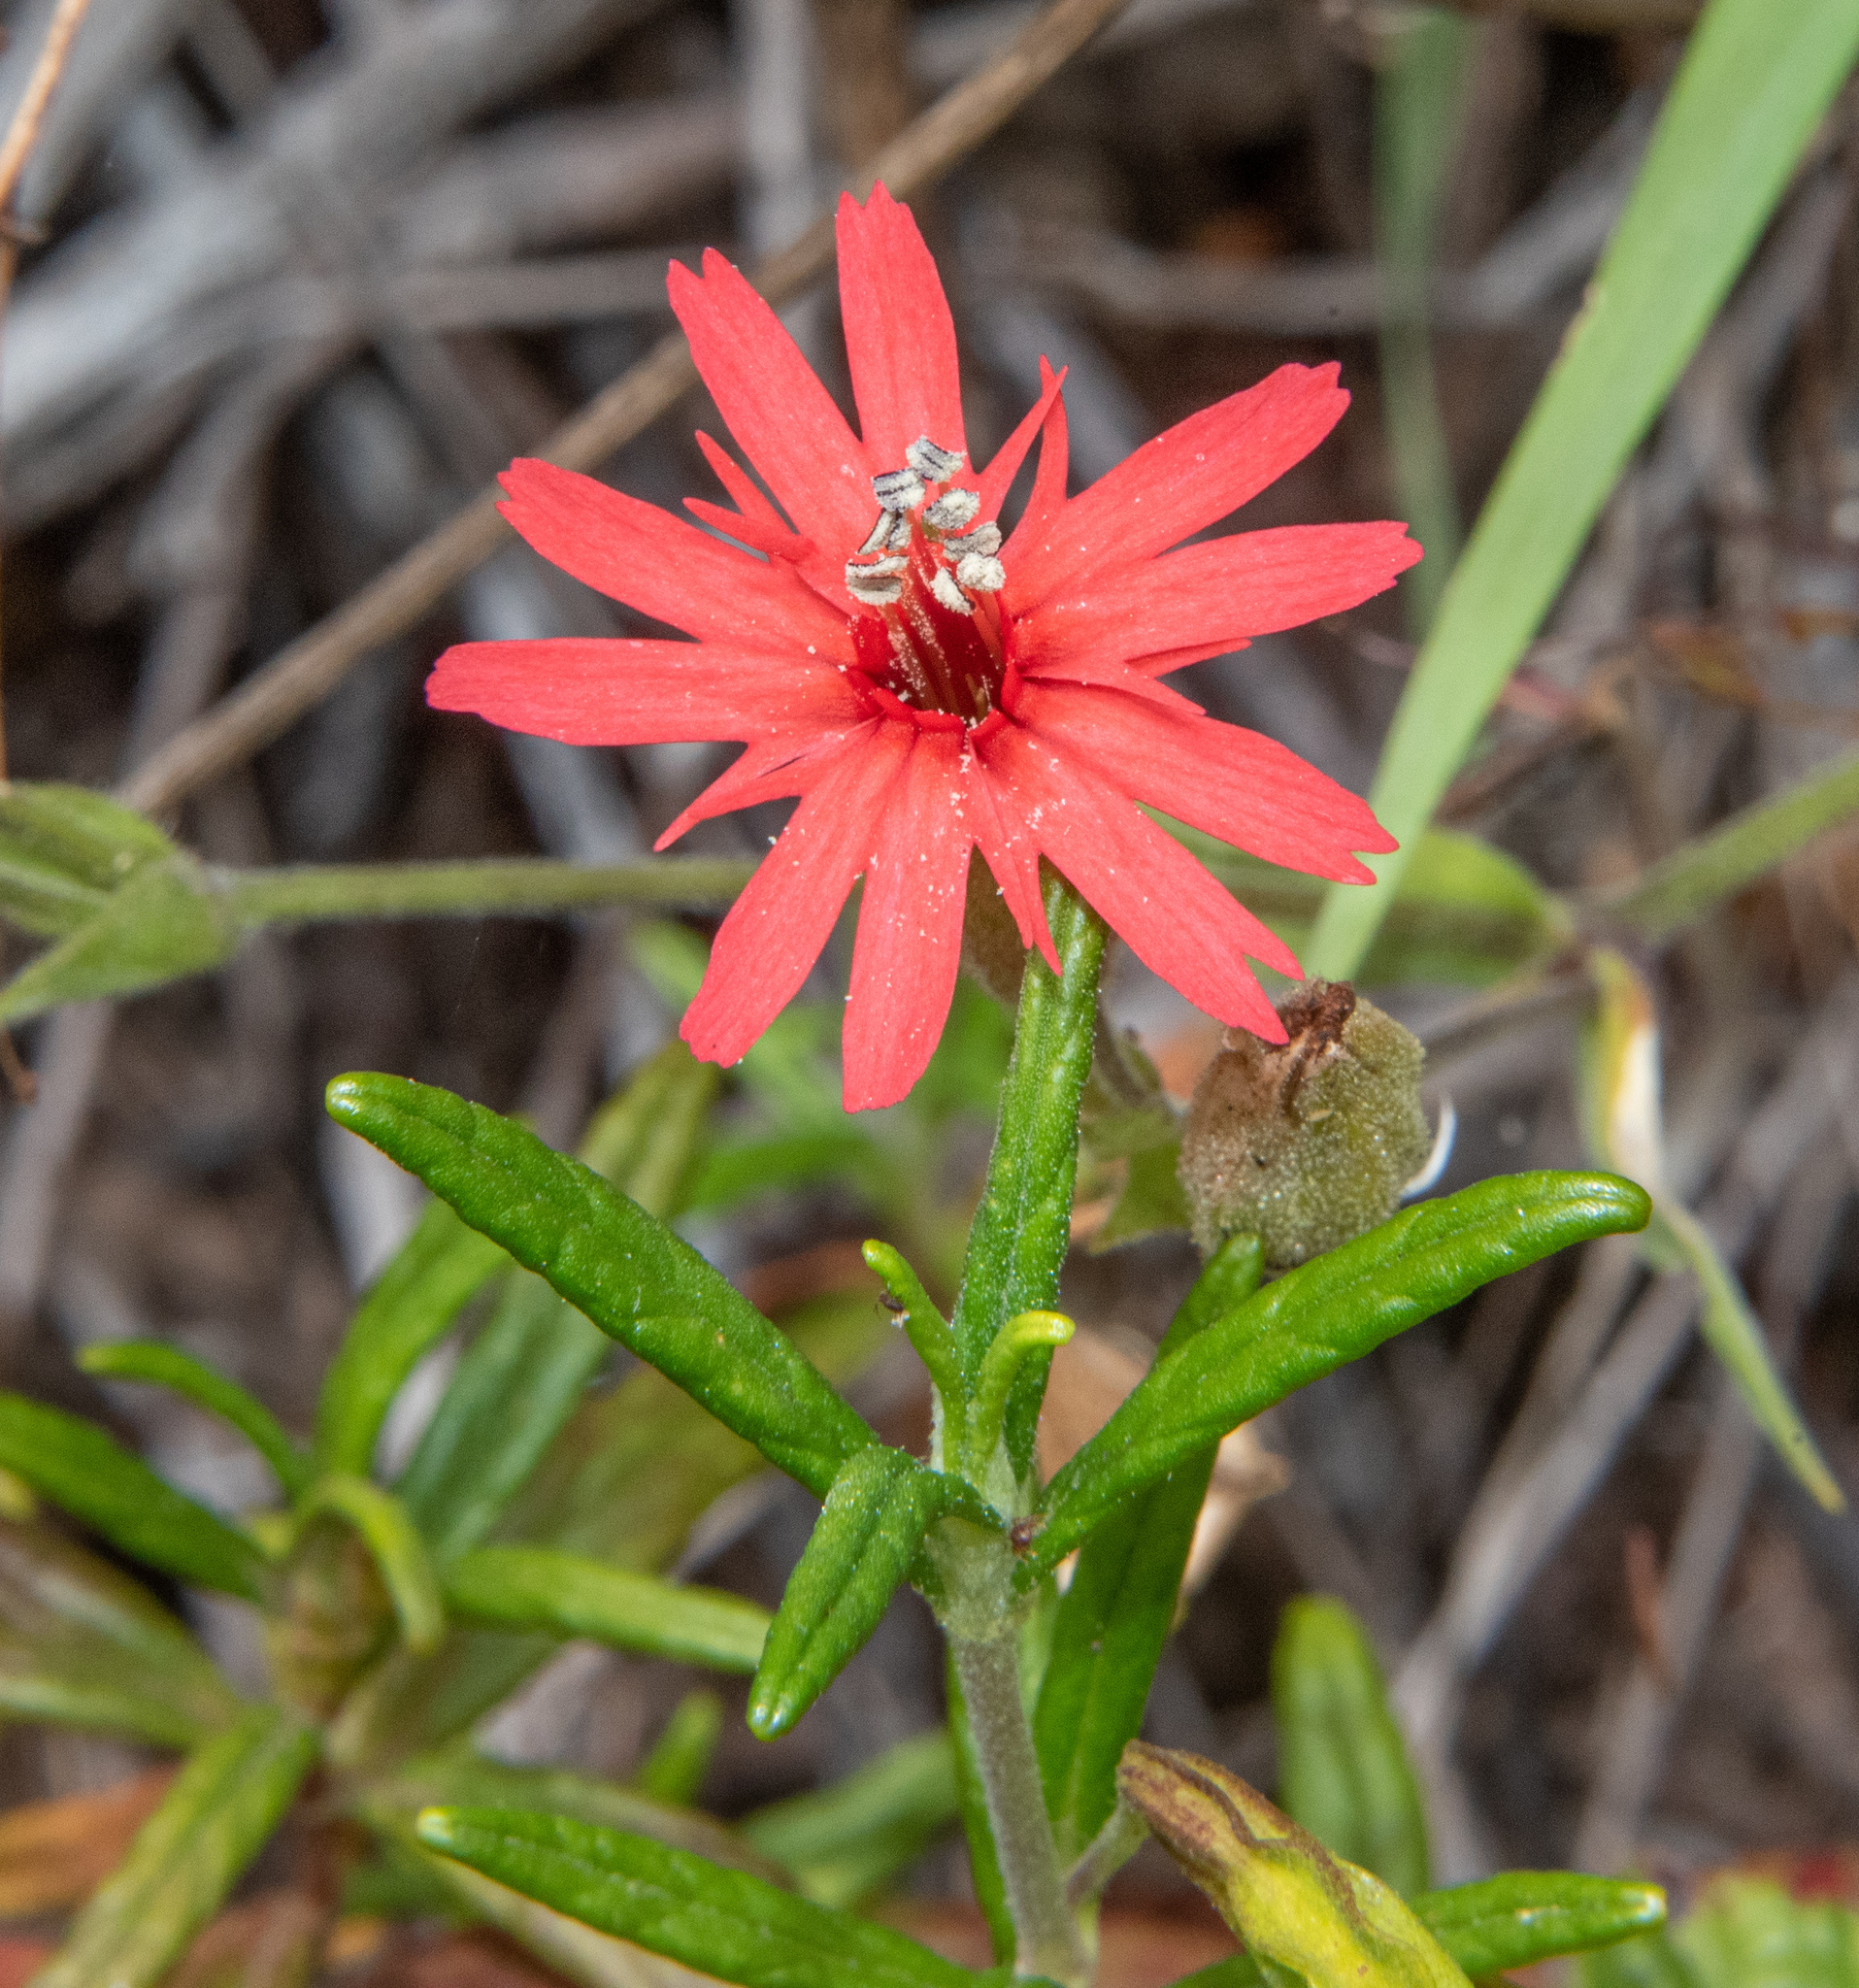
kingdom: Plantae
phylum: Tracheophyta
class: Magnoliopsida
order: Caryophyllales
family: Caryophyllaceae
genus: Silene
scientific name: Silene laciniata
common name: Indian-pink
